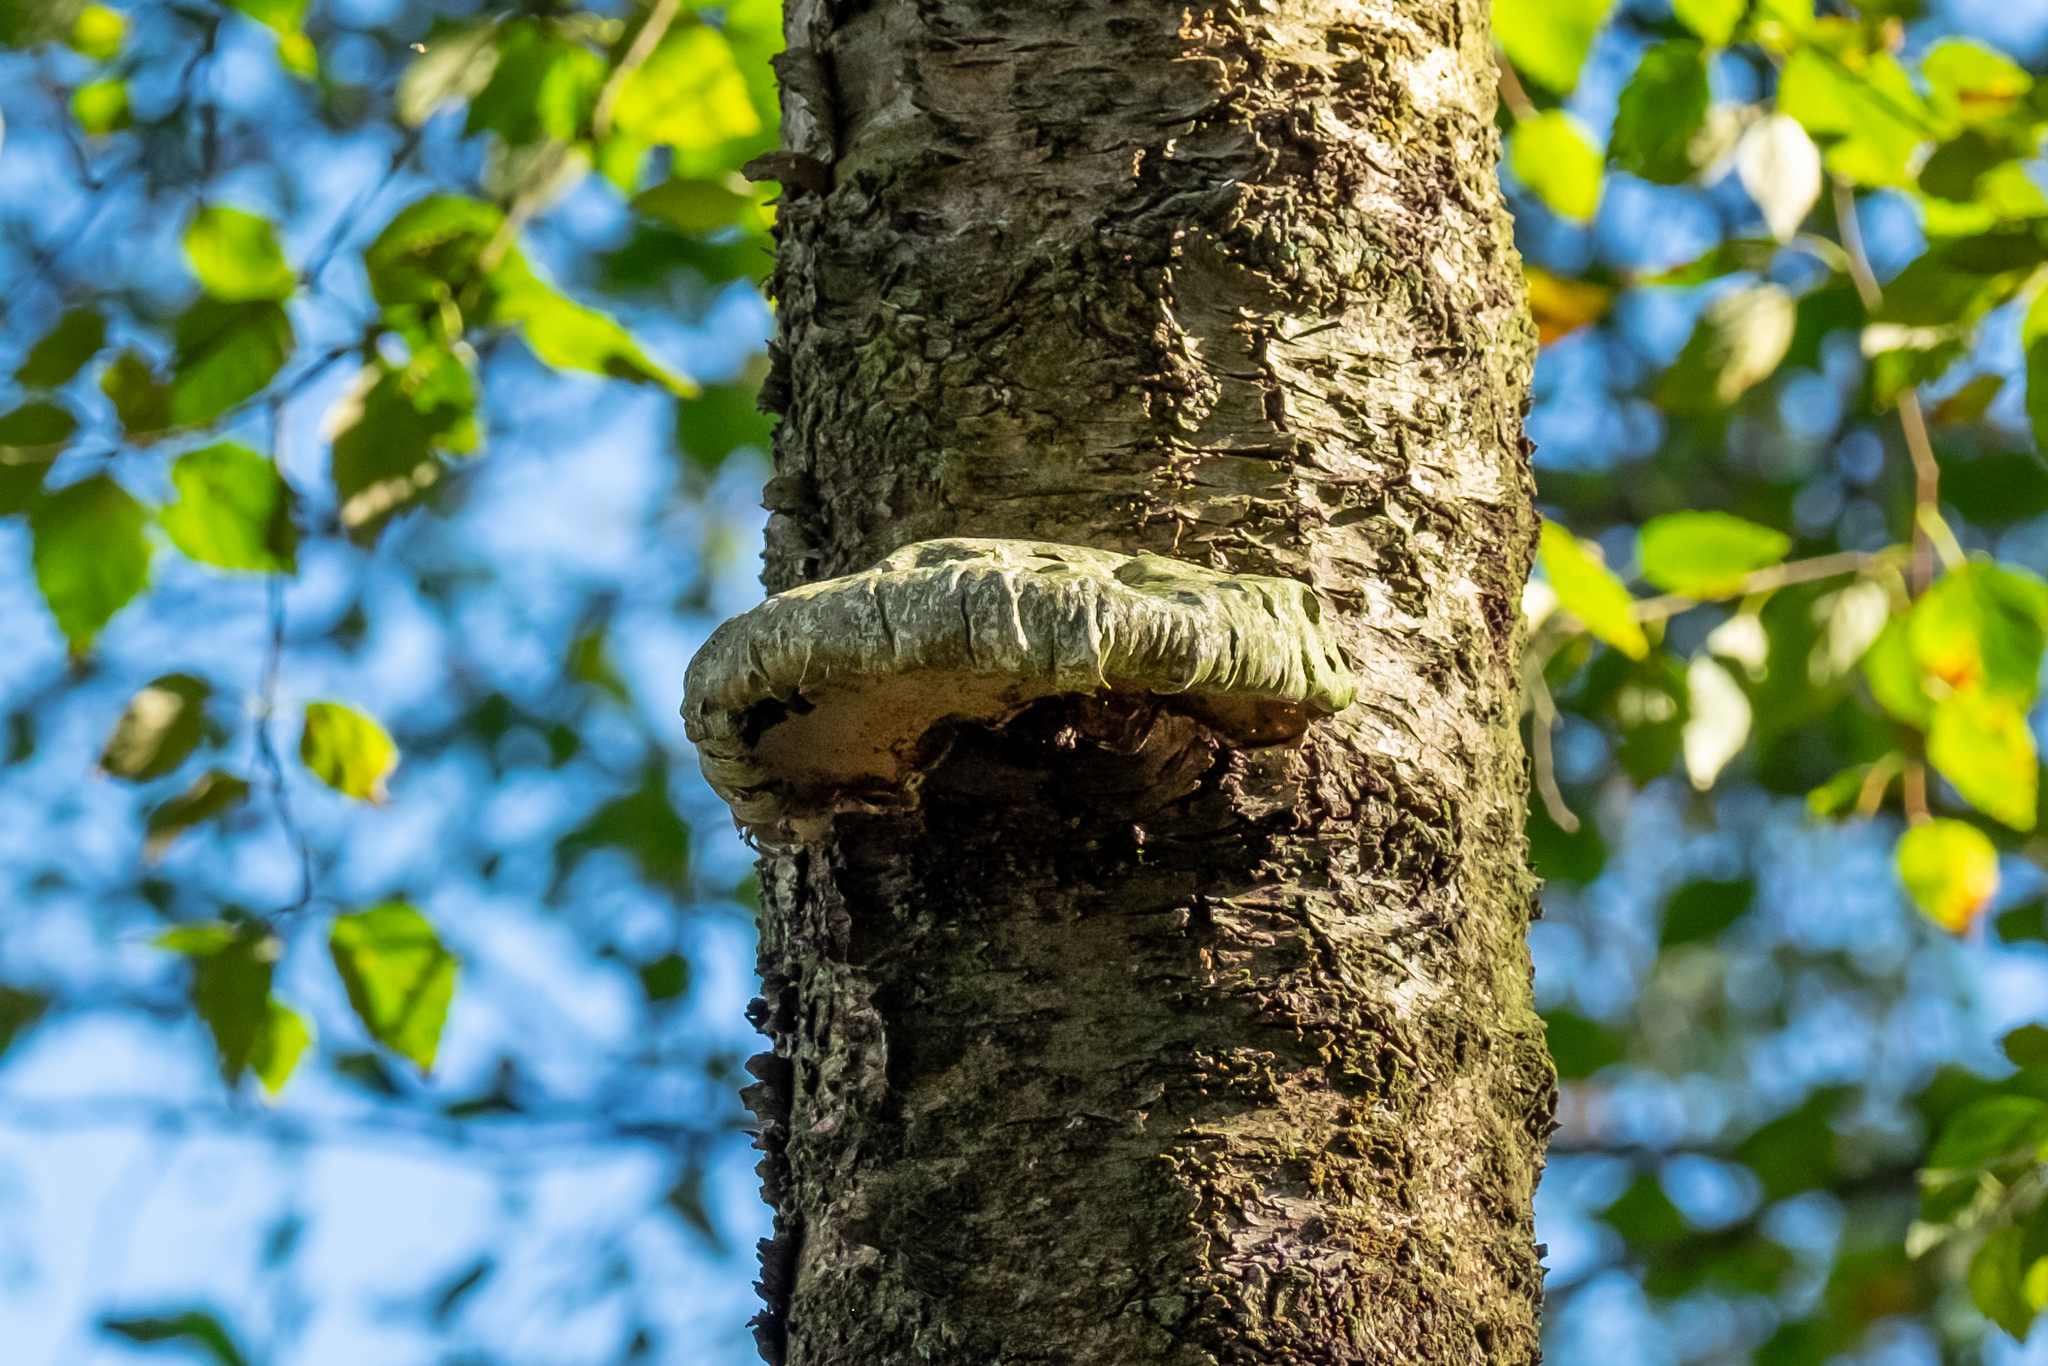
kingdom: Fungi
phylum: Basidiomycota
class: Agaricomycetes
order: Polyporales
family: Fomitopsidaceae
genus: Fomitopsis
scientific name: Fomitopsis betulina
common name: Birch polypore
